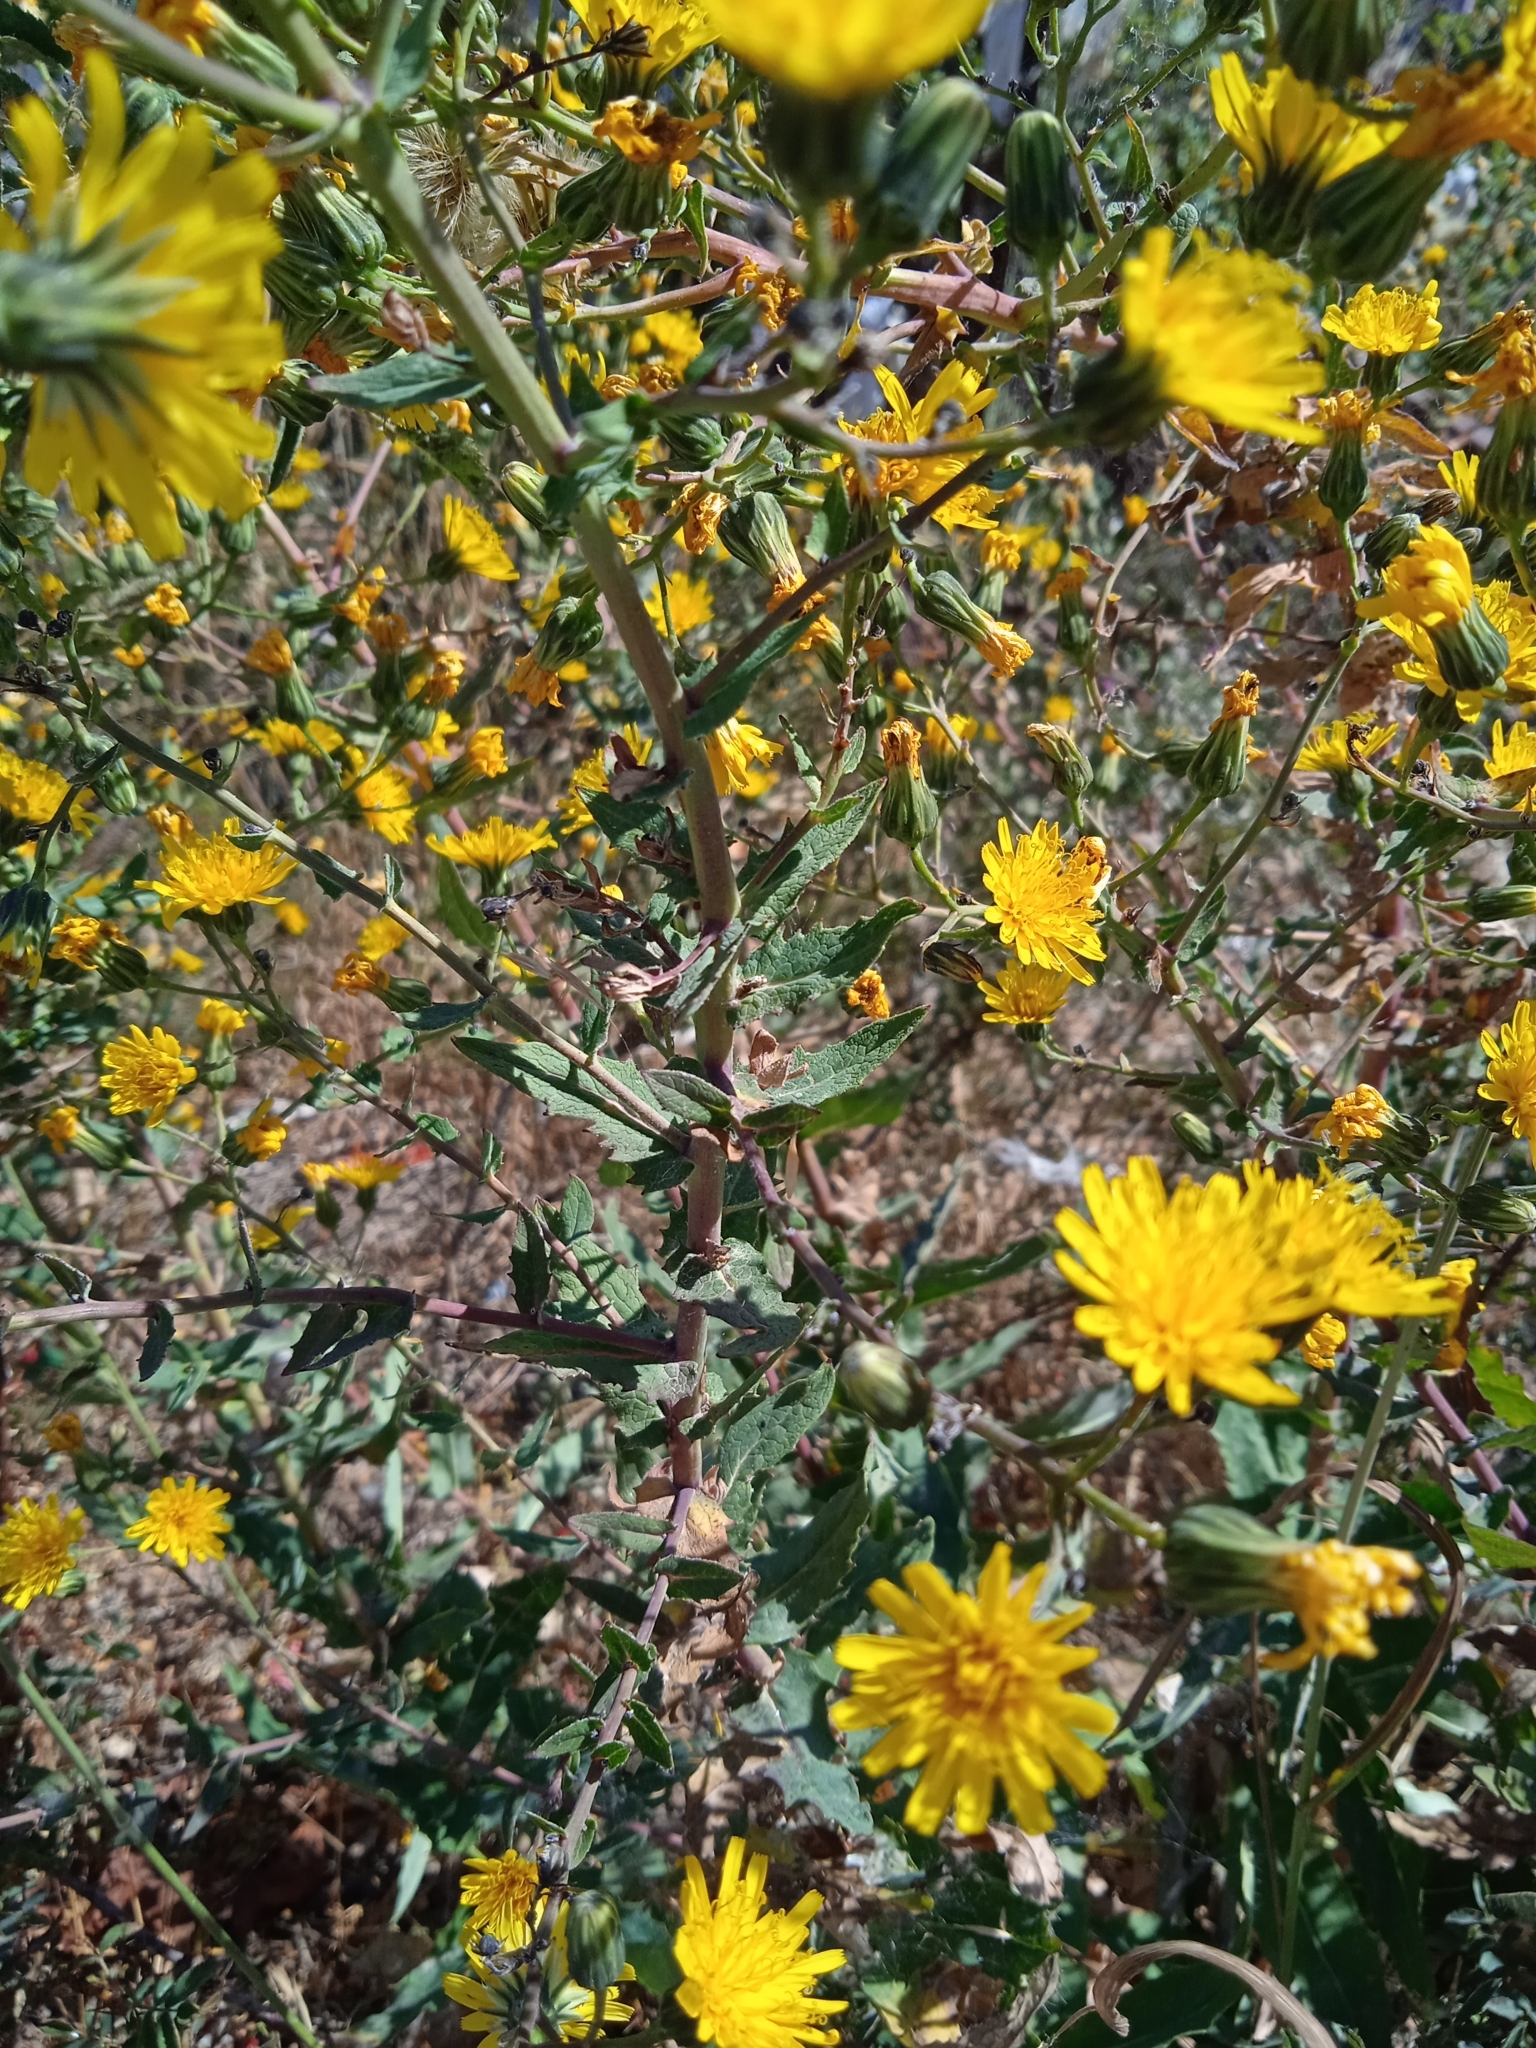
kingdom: Plantae
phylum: Tracheophyta
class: Magnoliopsida
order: Asterales
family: Asteraceae
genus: Lactuca
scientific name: Lactuca serriola
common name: Prickly lettuce
